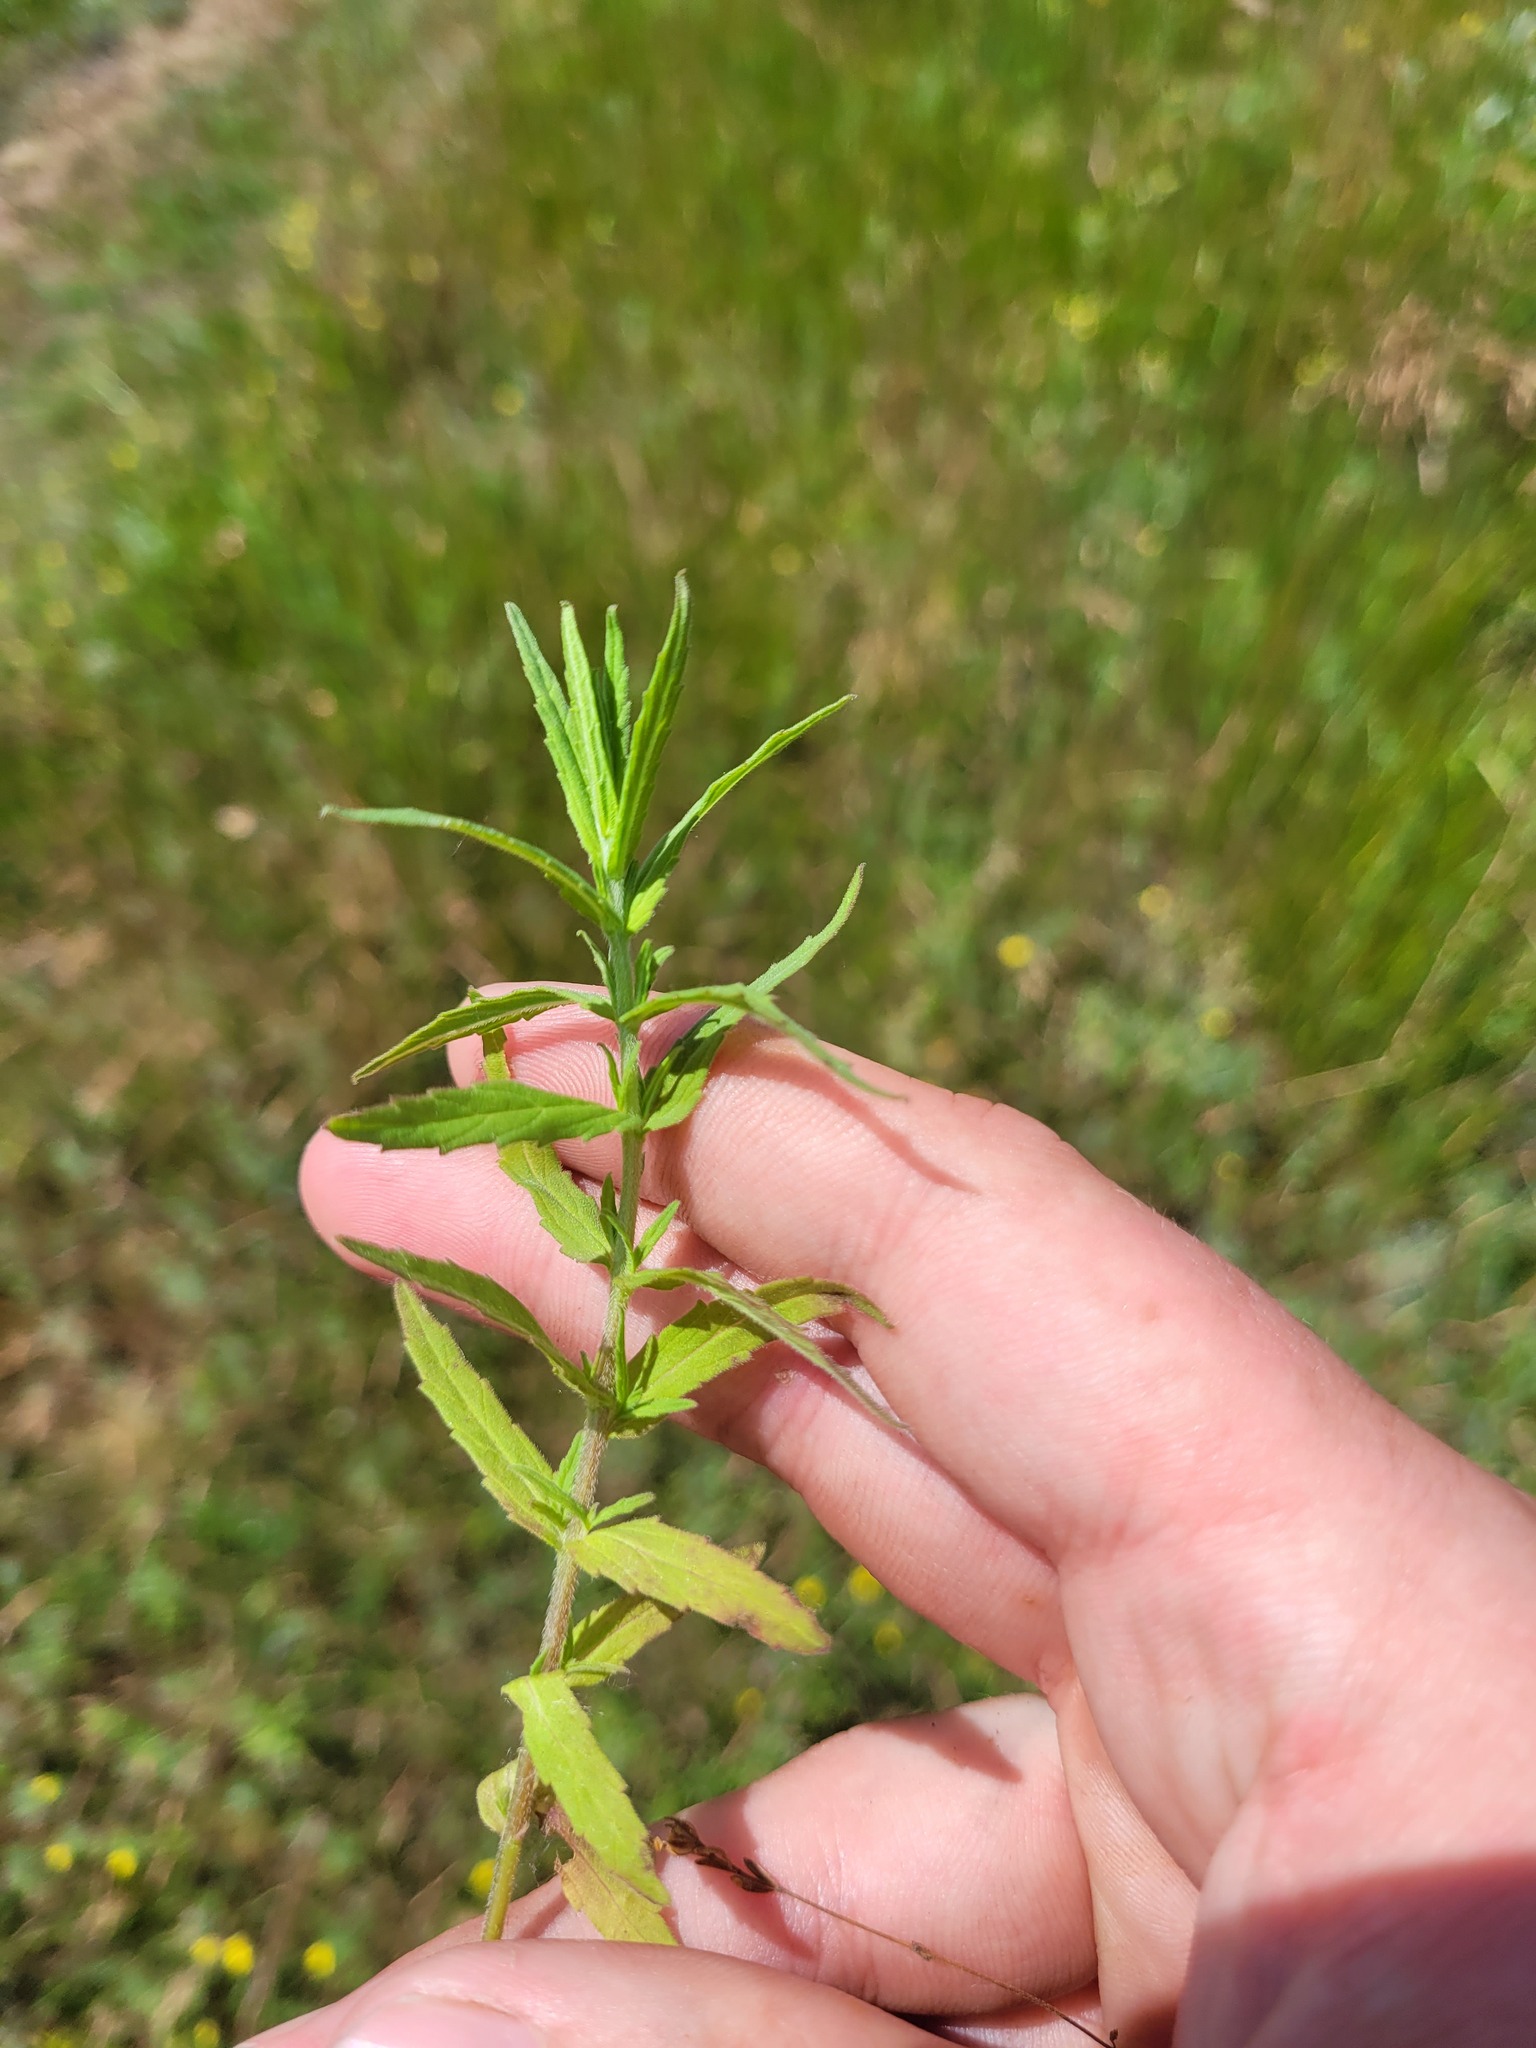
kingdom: Plantae
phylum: Tracheophyta
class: Magnoliopsida
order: Lamiales
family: Orobanchaceae
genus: Odontites
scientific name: Odontites vulgaris
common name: Broomrape
